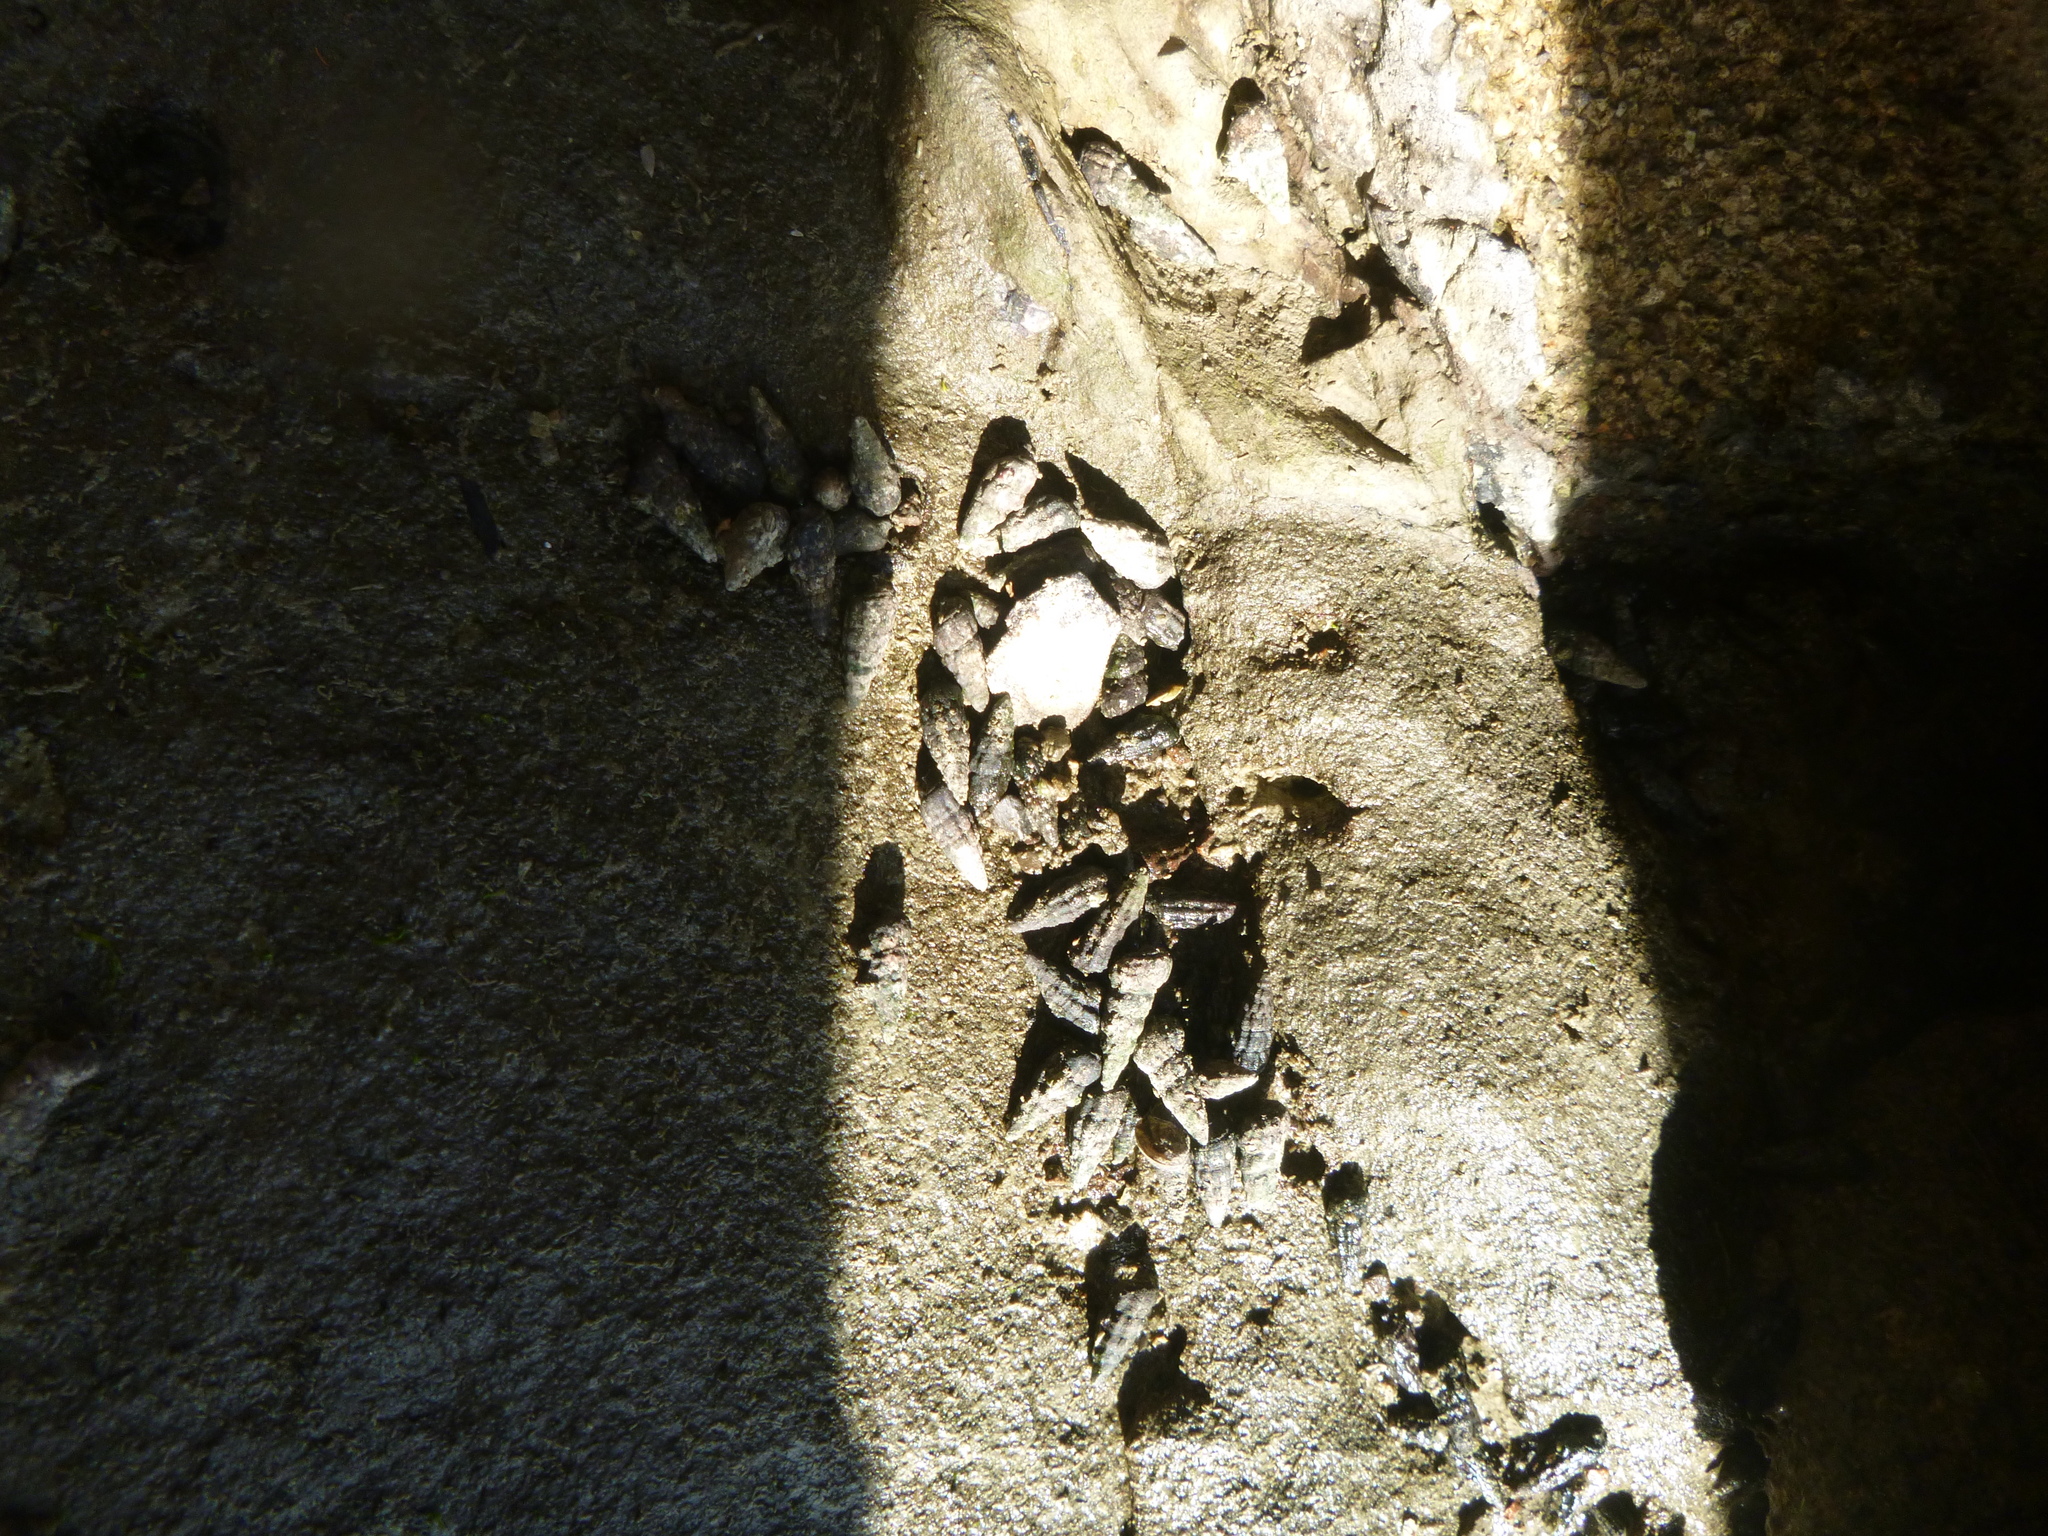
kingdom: Animalia
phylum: Mollusca
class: Gastropoda
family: Batillariidae
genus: Zeacumantus
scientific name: Zeacumantus subcarinatus
